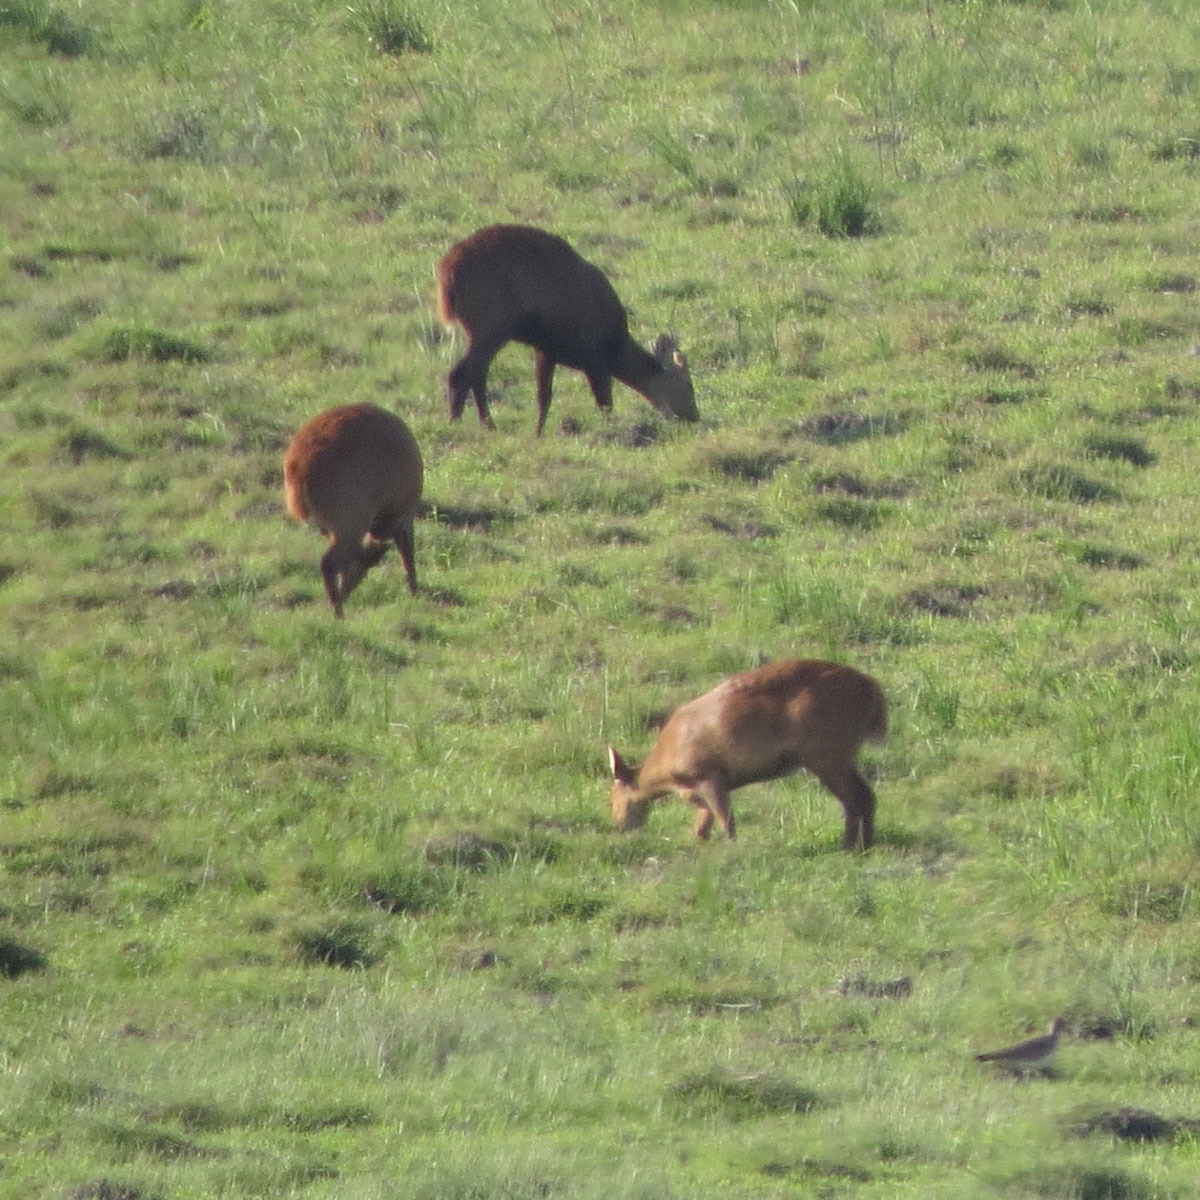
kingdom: Animalia
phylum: Chordata
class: Mammalia
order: Artiodactyla
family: Cervidae
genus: Axis
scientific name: Axis porcinus
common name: Hog deer
